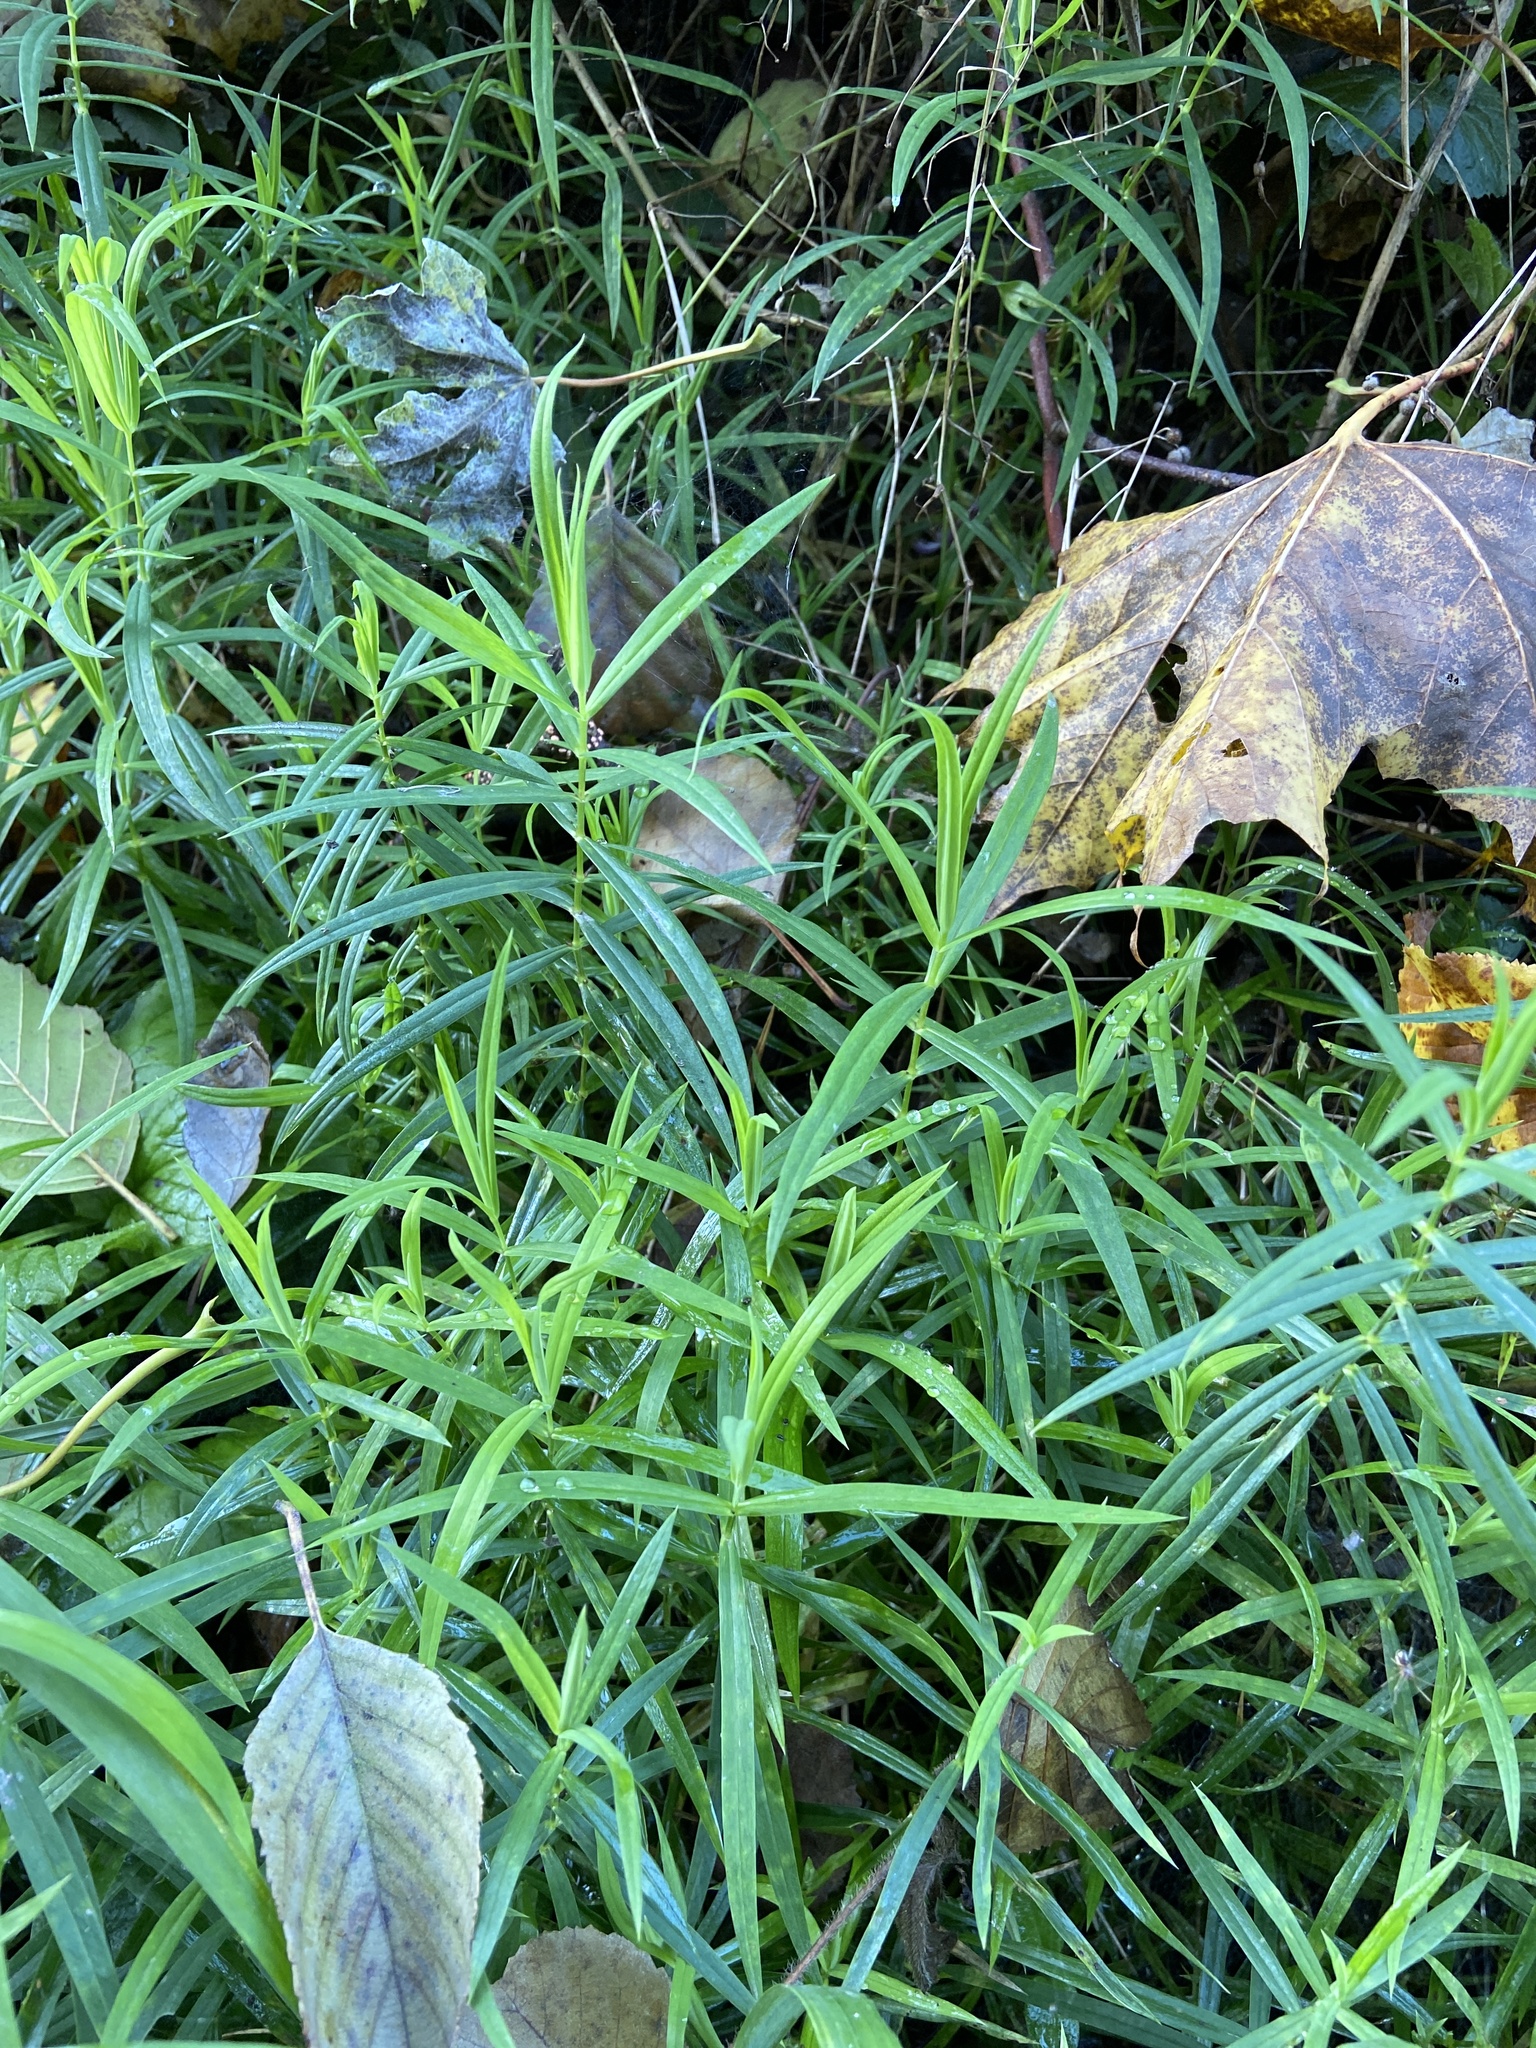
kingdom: Plantae
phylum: Tracheophyta
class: Liliopsida
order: Asparagales
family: Asparagaceae
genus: Polygonatum
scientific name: Polygonatum verticillatum
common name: Whorled solomon's-seal
